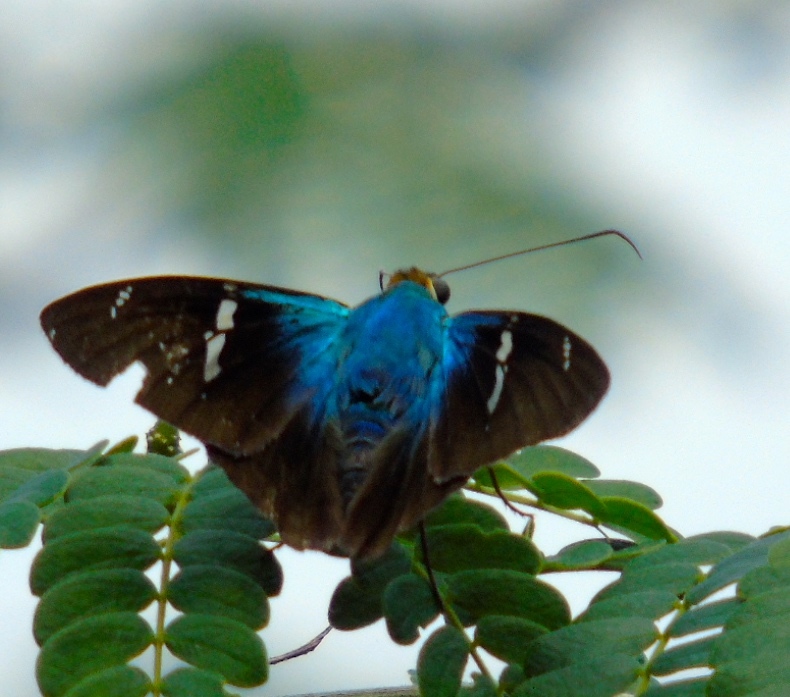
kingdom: Animalia
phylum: Arthropoda
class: Insecta
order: Lepidoptera
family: Hesperiidae
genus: Astraptes
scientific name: Astraptes fulgerator
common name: Two-barred flasher
